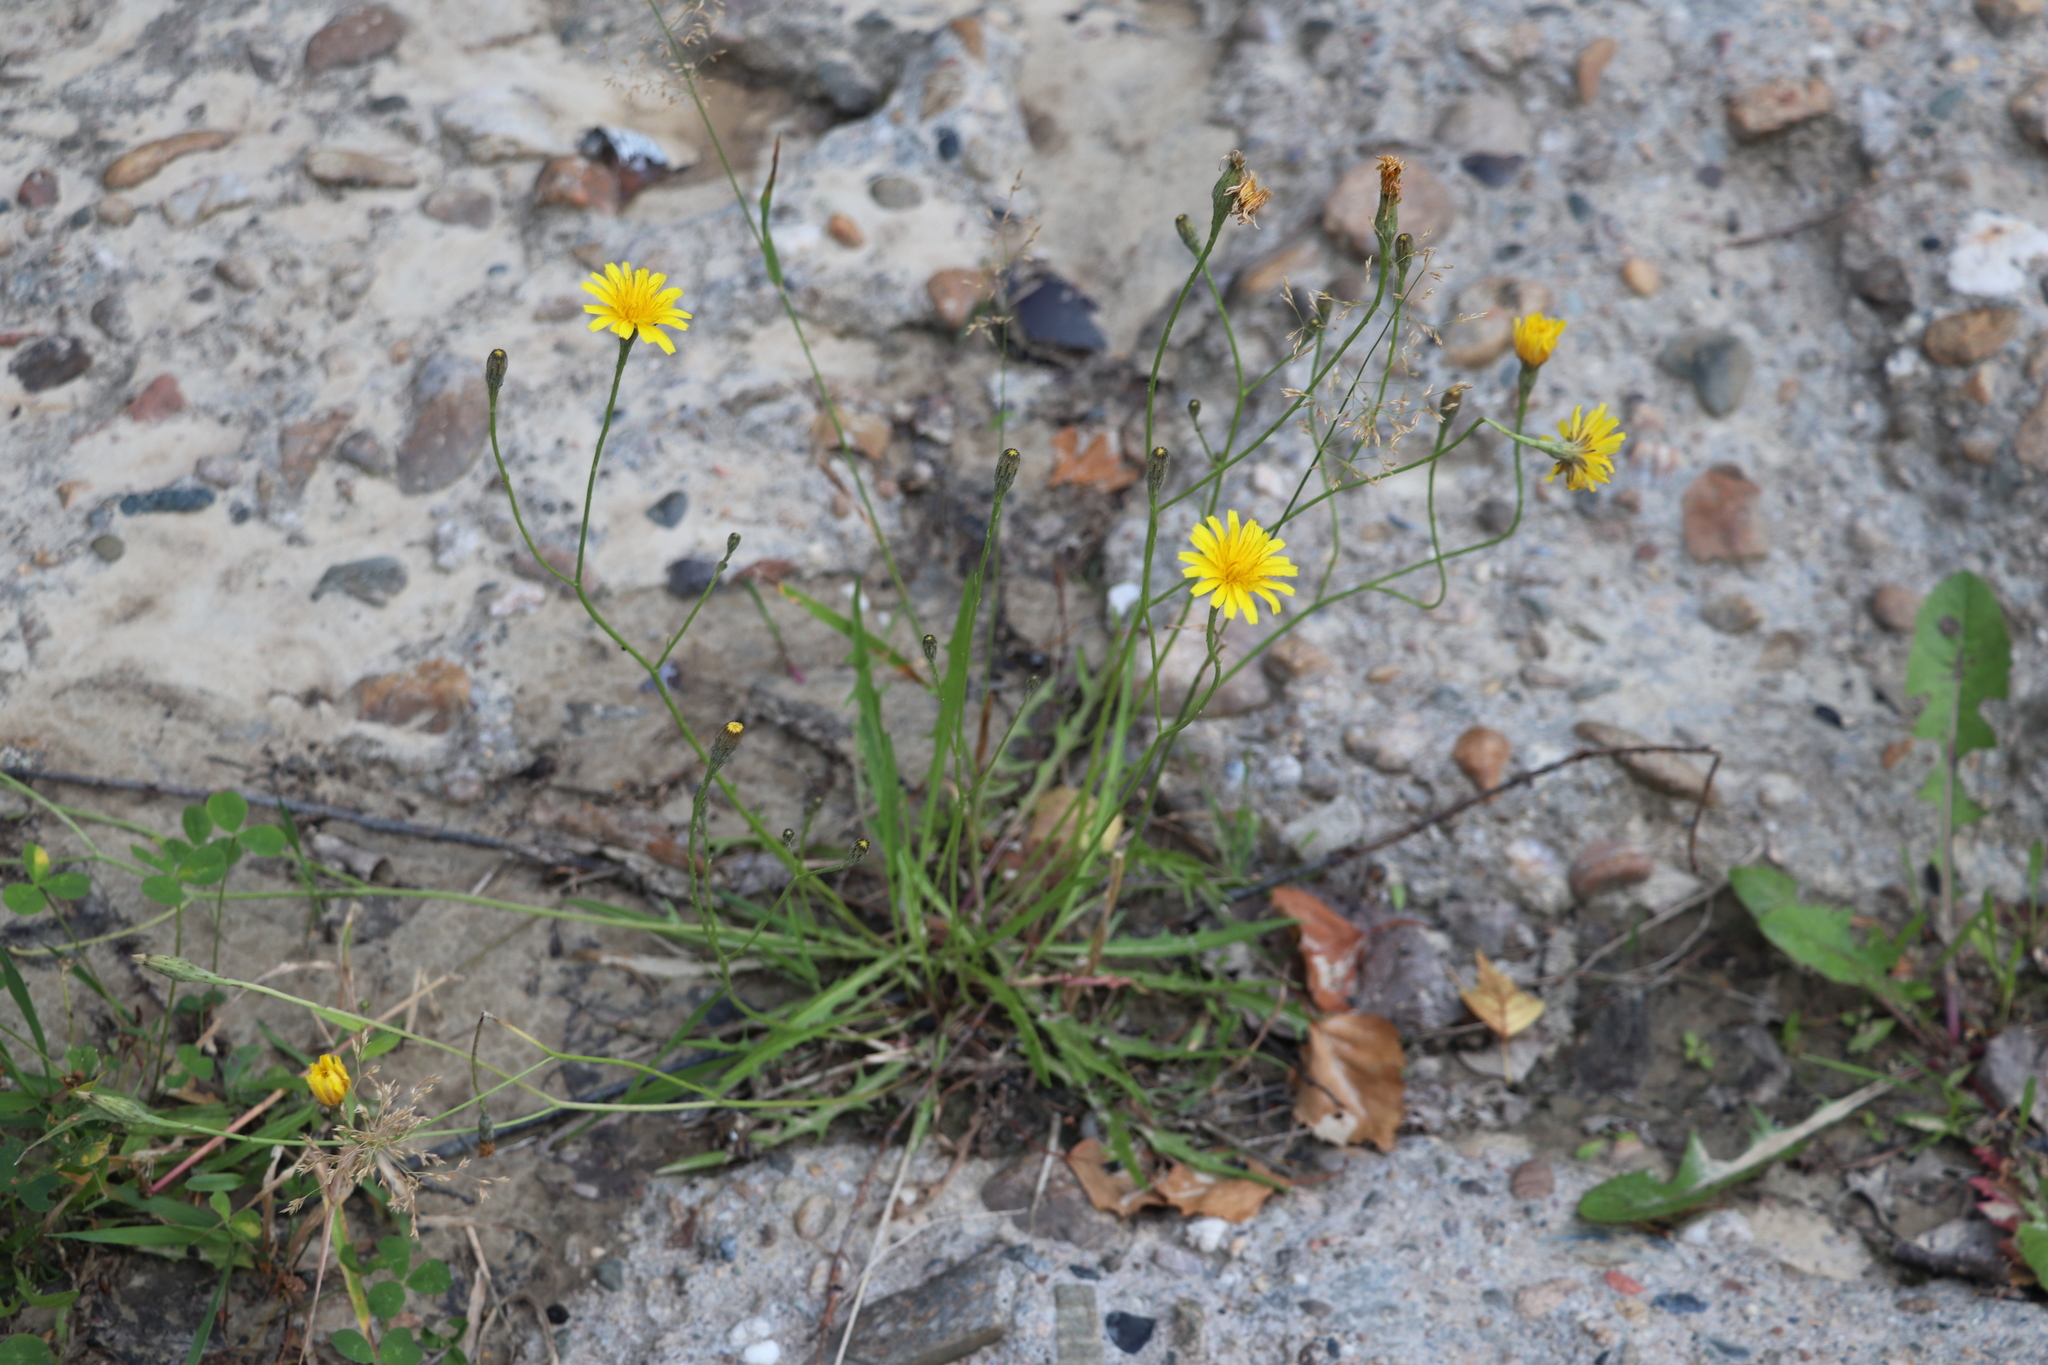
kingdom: Plantae
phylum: Tracheophyta
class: Magnoliopsida
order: Asterales
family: Asteraceae
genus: Scorzoneroides
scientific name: Scorzoneroides autumnalis
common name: Autumn hawkbit
